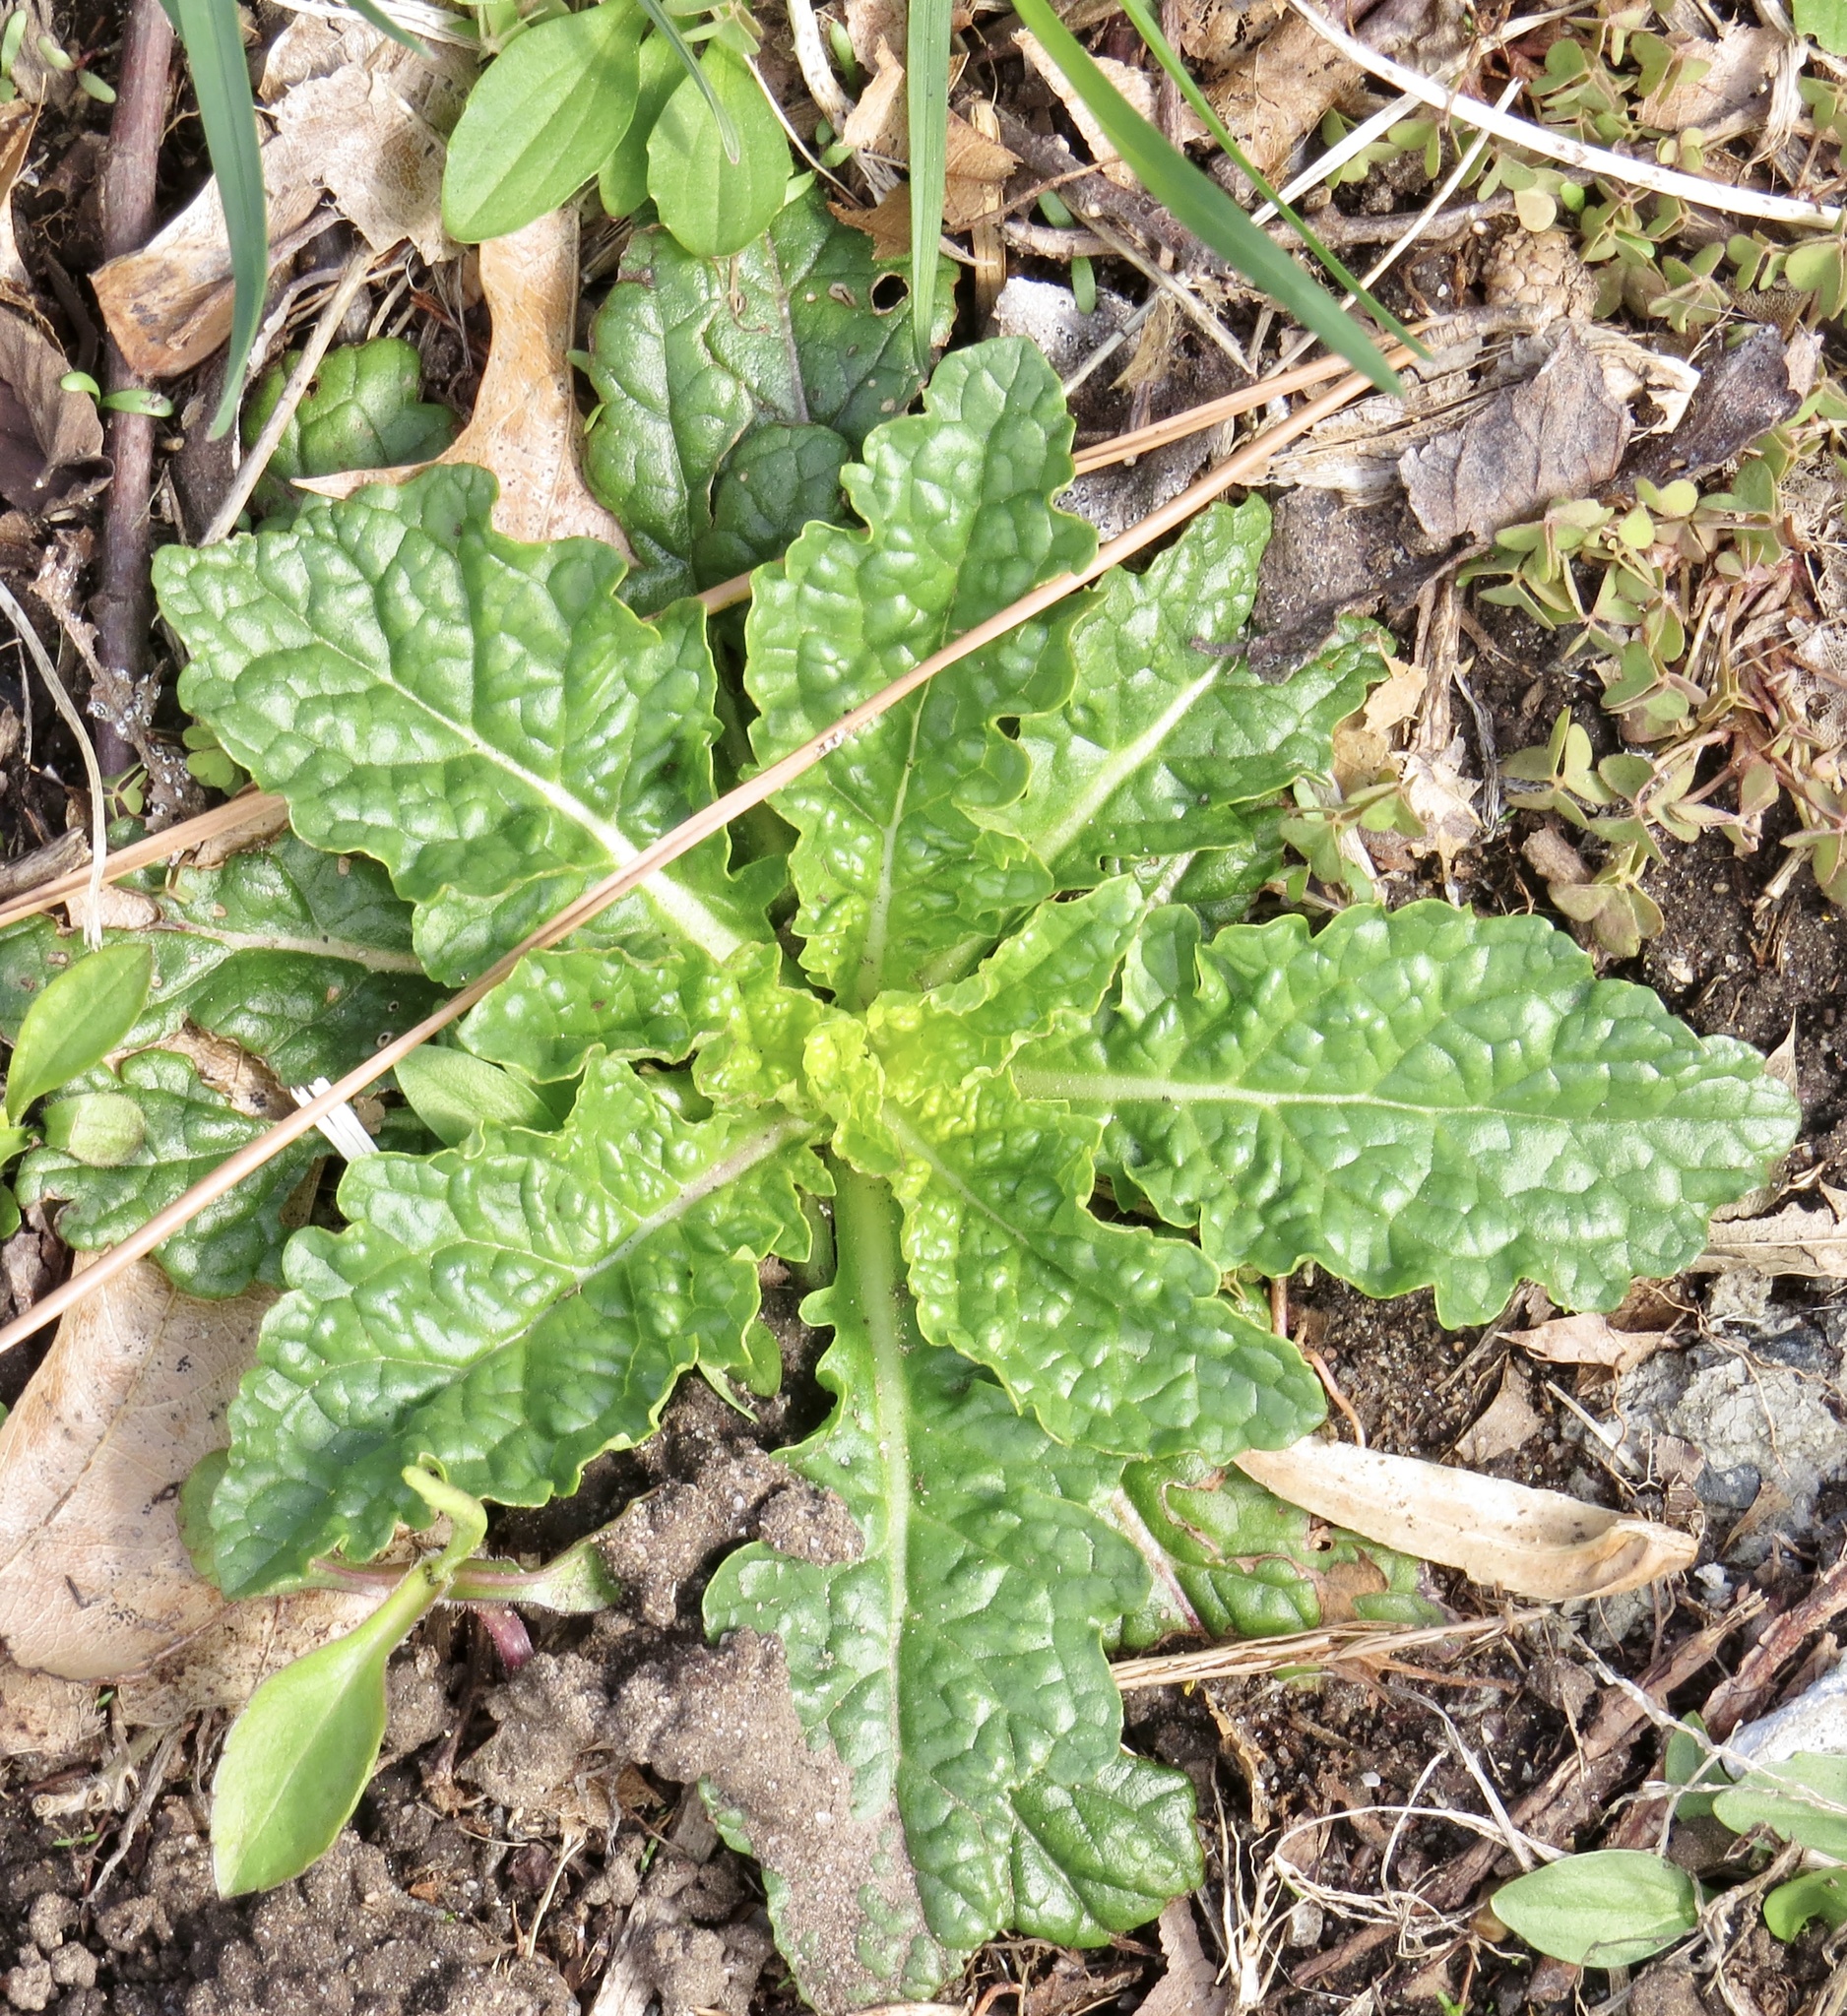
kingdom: Plantae
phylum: Tracheophyta
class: Magnoliopsida
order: Lamiales
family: Scrophulariaceae
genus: Verbascum
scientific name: Verbascum blattaria
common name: Moth mullein
